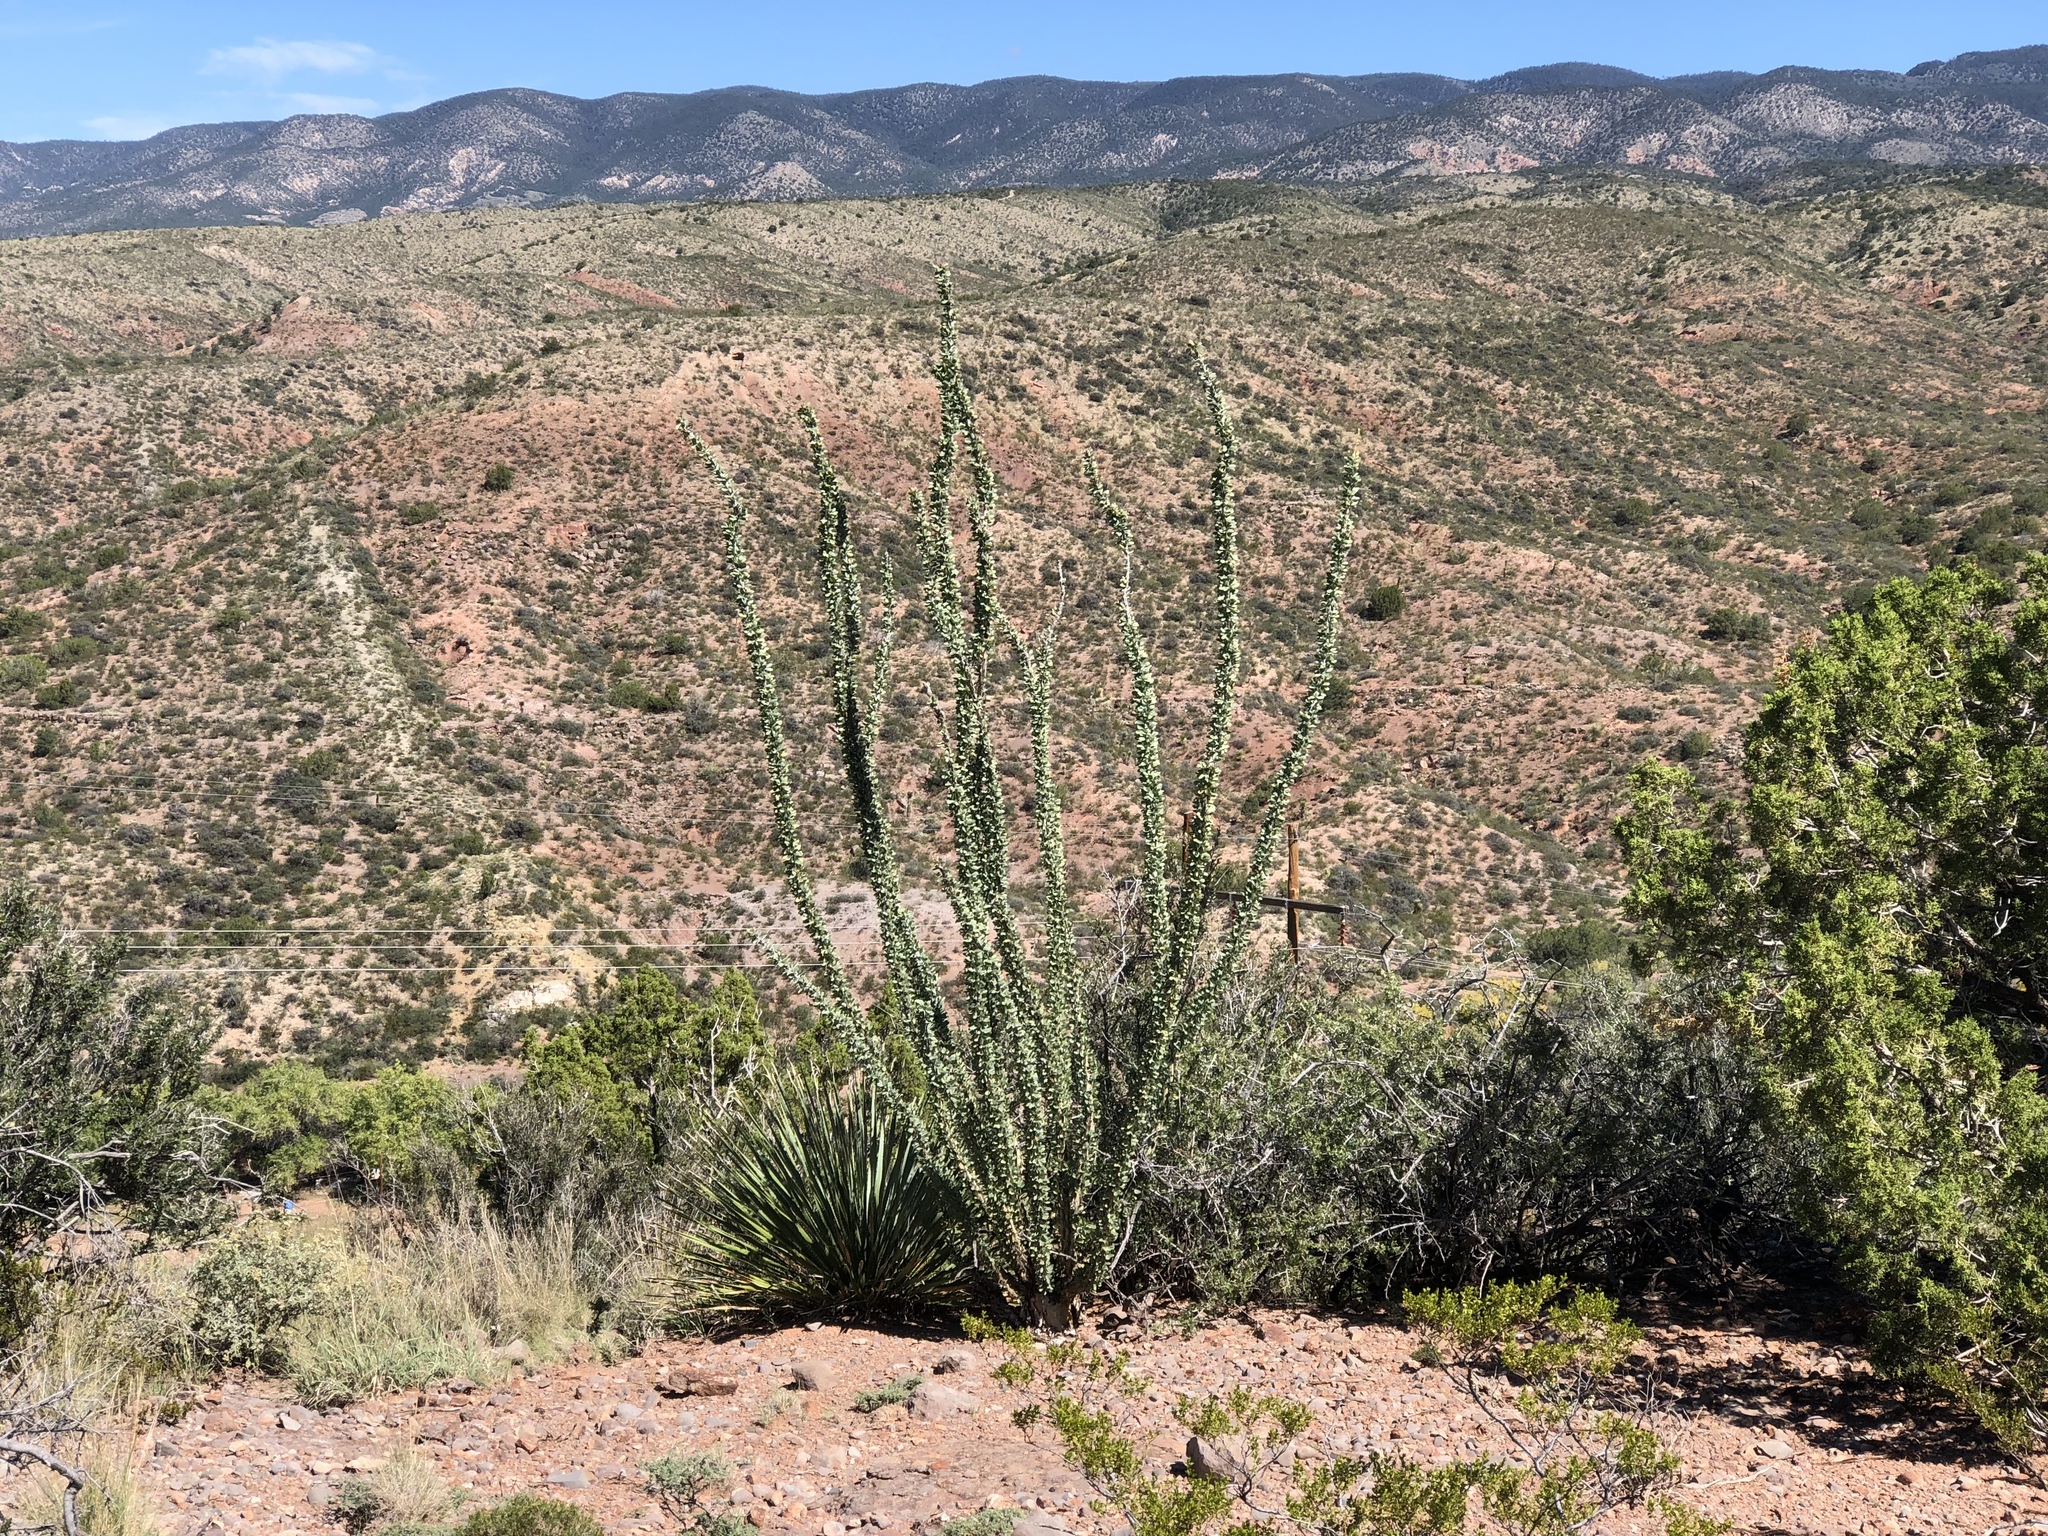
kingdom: Plantae
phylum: Tracheophyta
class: Magnoliopsida
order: Ericales
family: Fouquieriaceae
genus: Fouquieria
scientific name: Fouquieria splendens
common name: Vine-cactus
